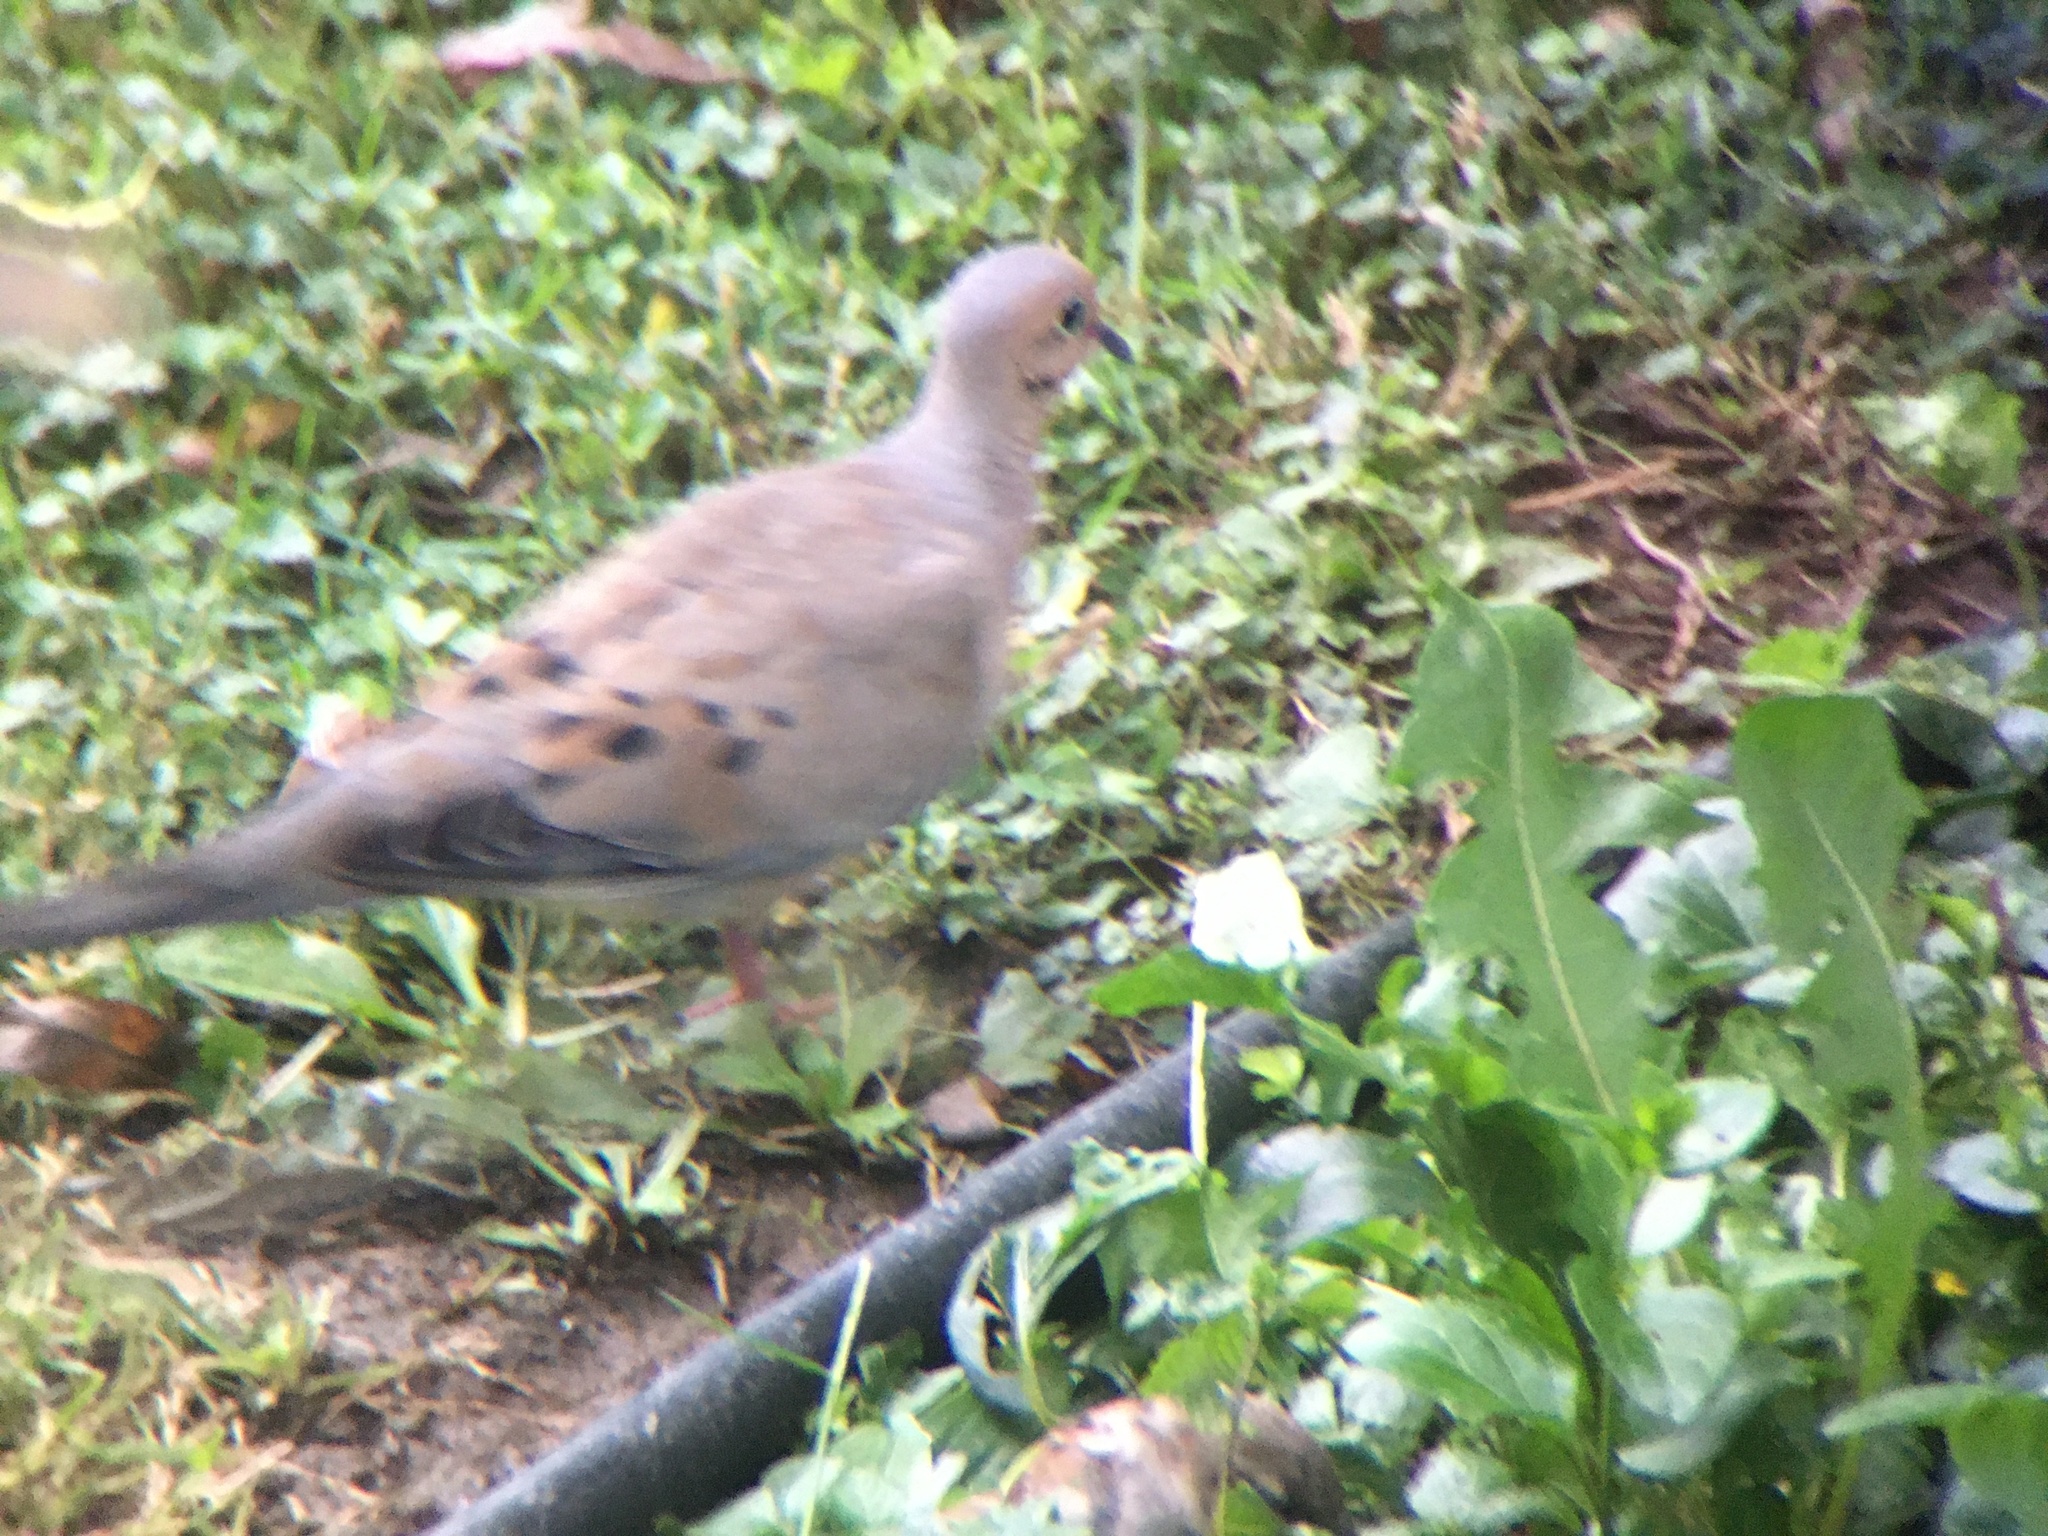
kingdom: Animalia
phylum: Chordata
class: Aves
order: Columbiformes
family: Columbidae
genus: Zenaida
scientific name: Zenaida macroura
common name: Mourning dove
